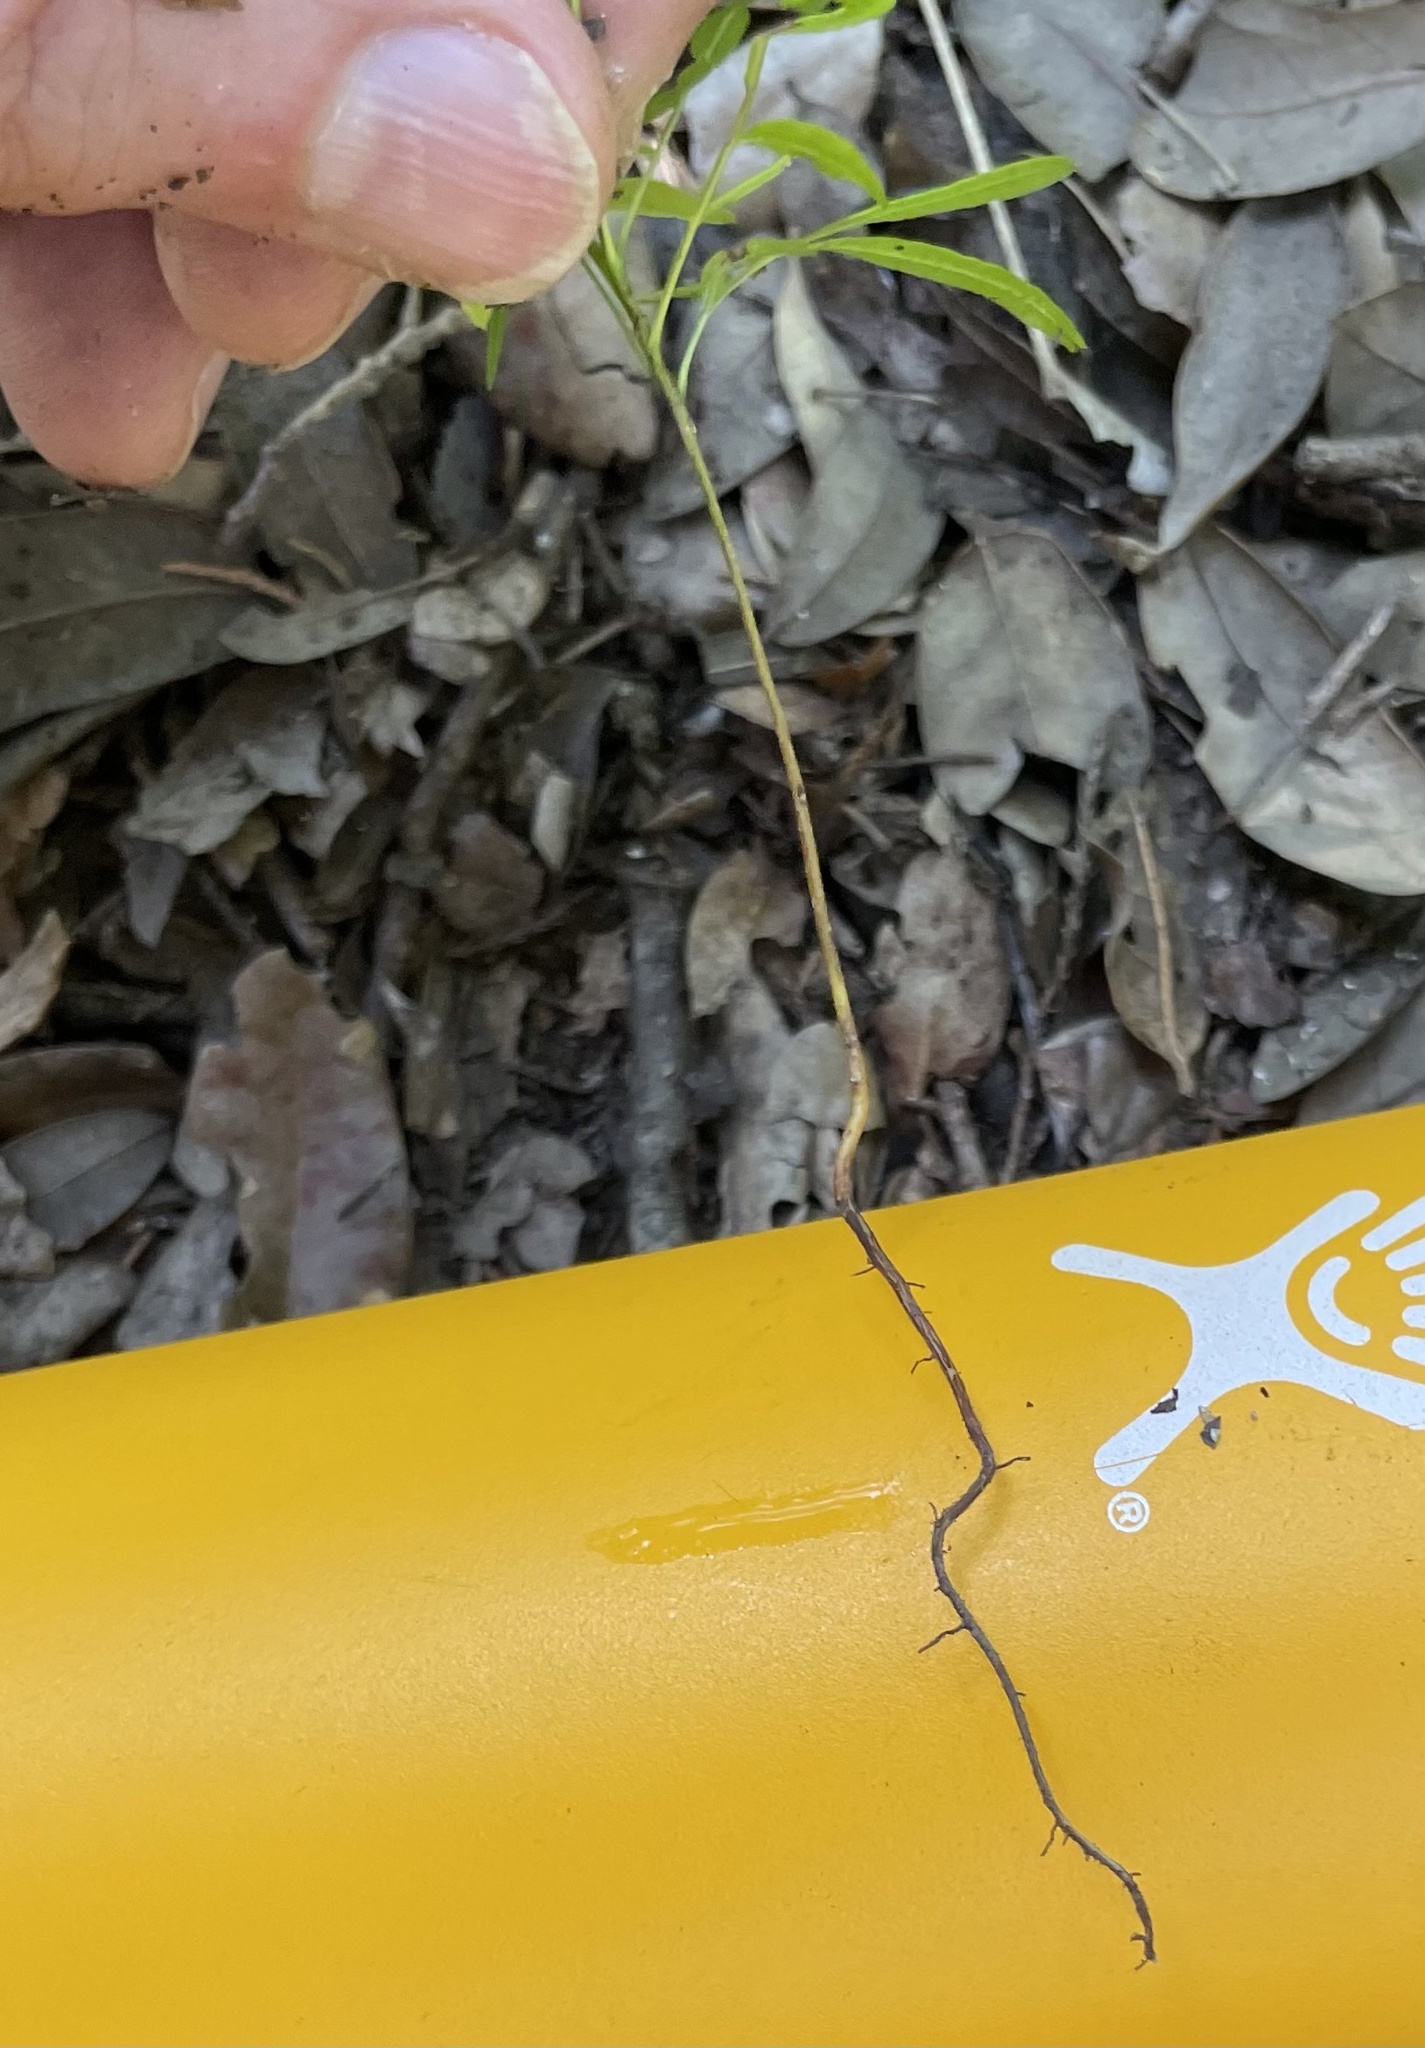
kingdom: Plantae
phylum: Tracheophyta
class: Magnoliopsida
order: Sapindales
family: Anacardiaceae
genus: Pistacia
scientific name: Pistacia chinensis
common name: Chinese pistache
